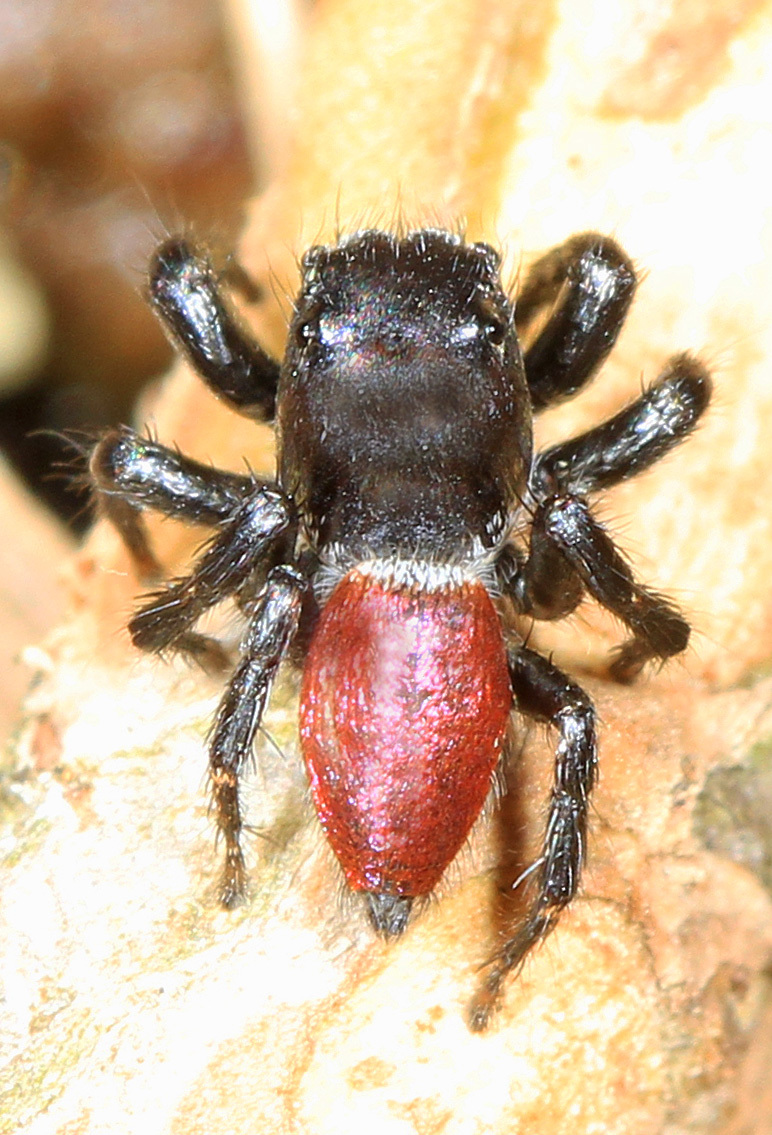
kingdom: Animalia
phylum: Arthropoda
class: Arachnida
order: Araneae
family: Salticidae
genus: Habronattus
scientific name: Habronattus decorus
